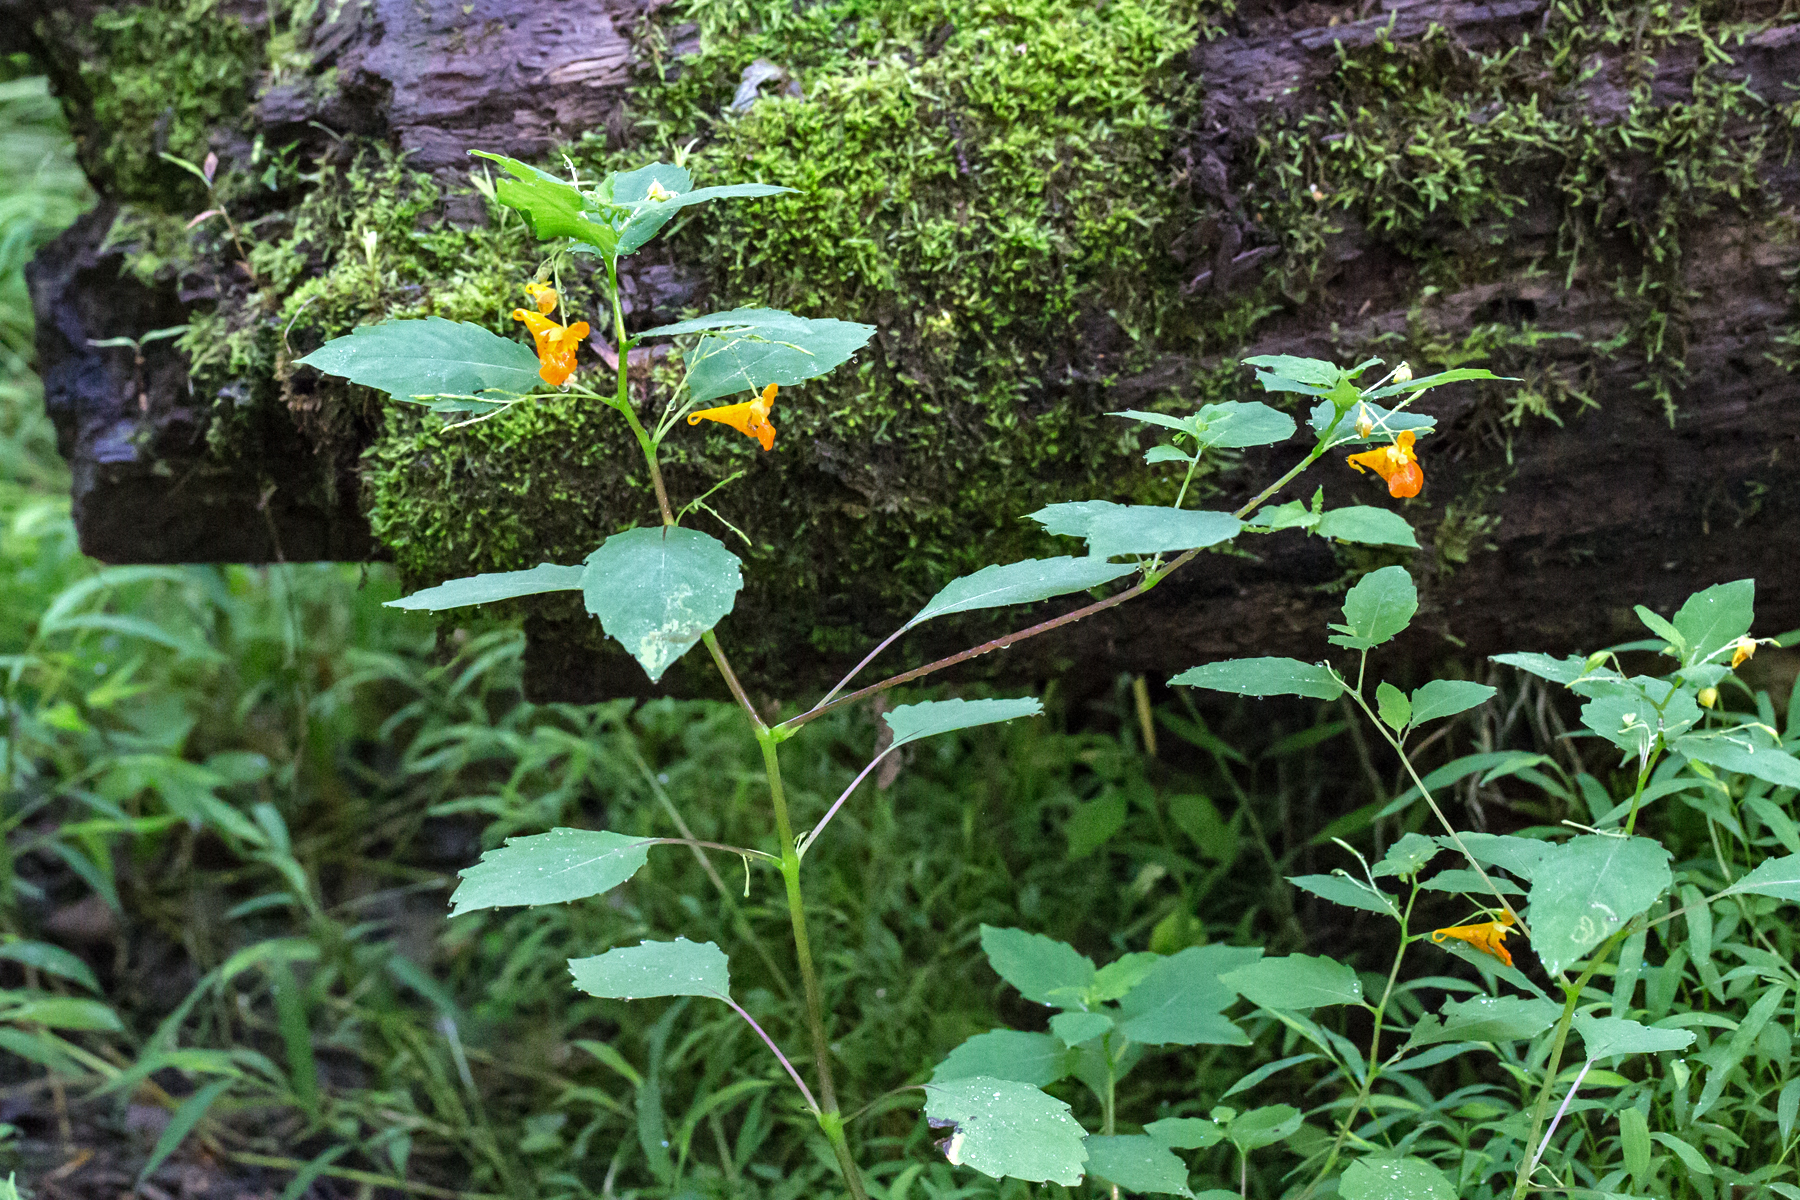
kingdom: Plantae
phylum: Tracheophyta
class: Magnoliopsida
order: Ericales
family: Balsaminaceae
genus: Impatiens
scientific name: Impatiens capensis
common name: Orange balsam
